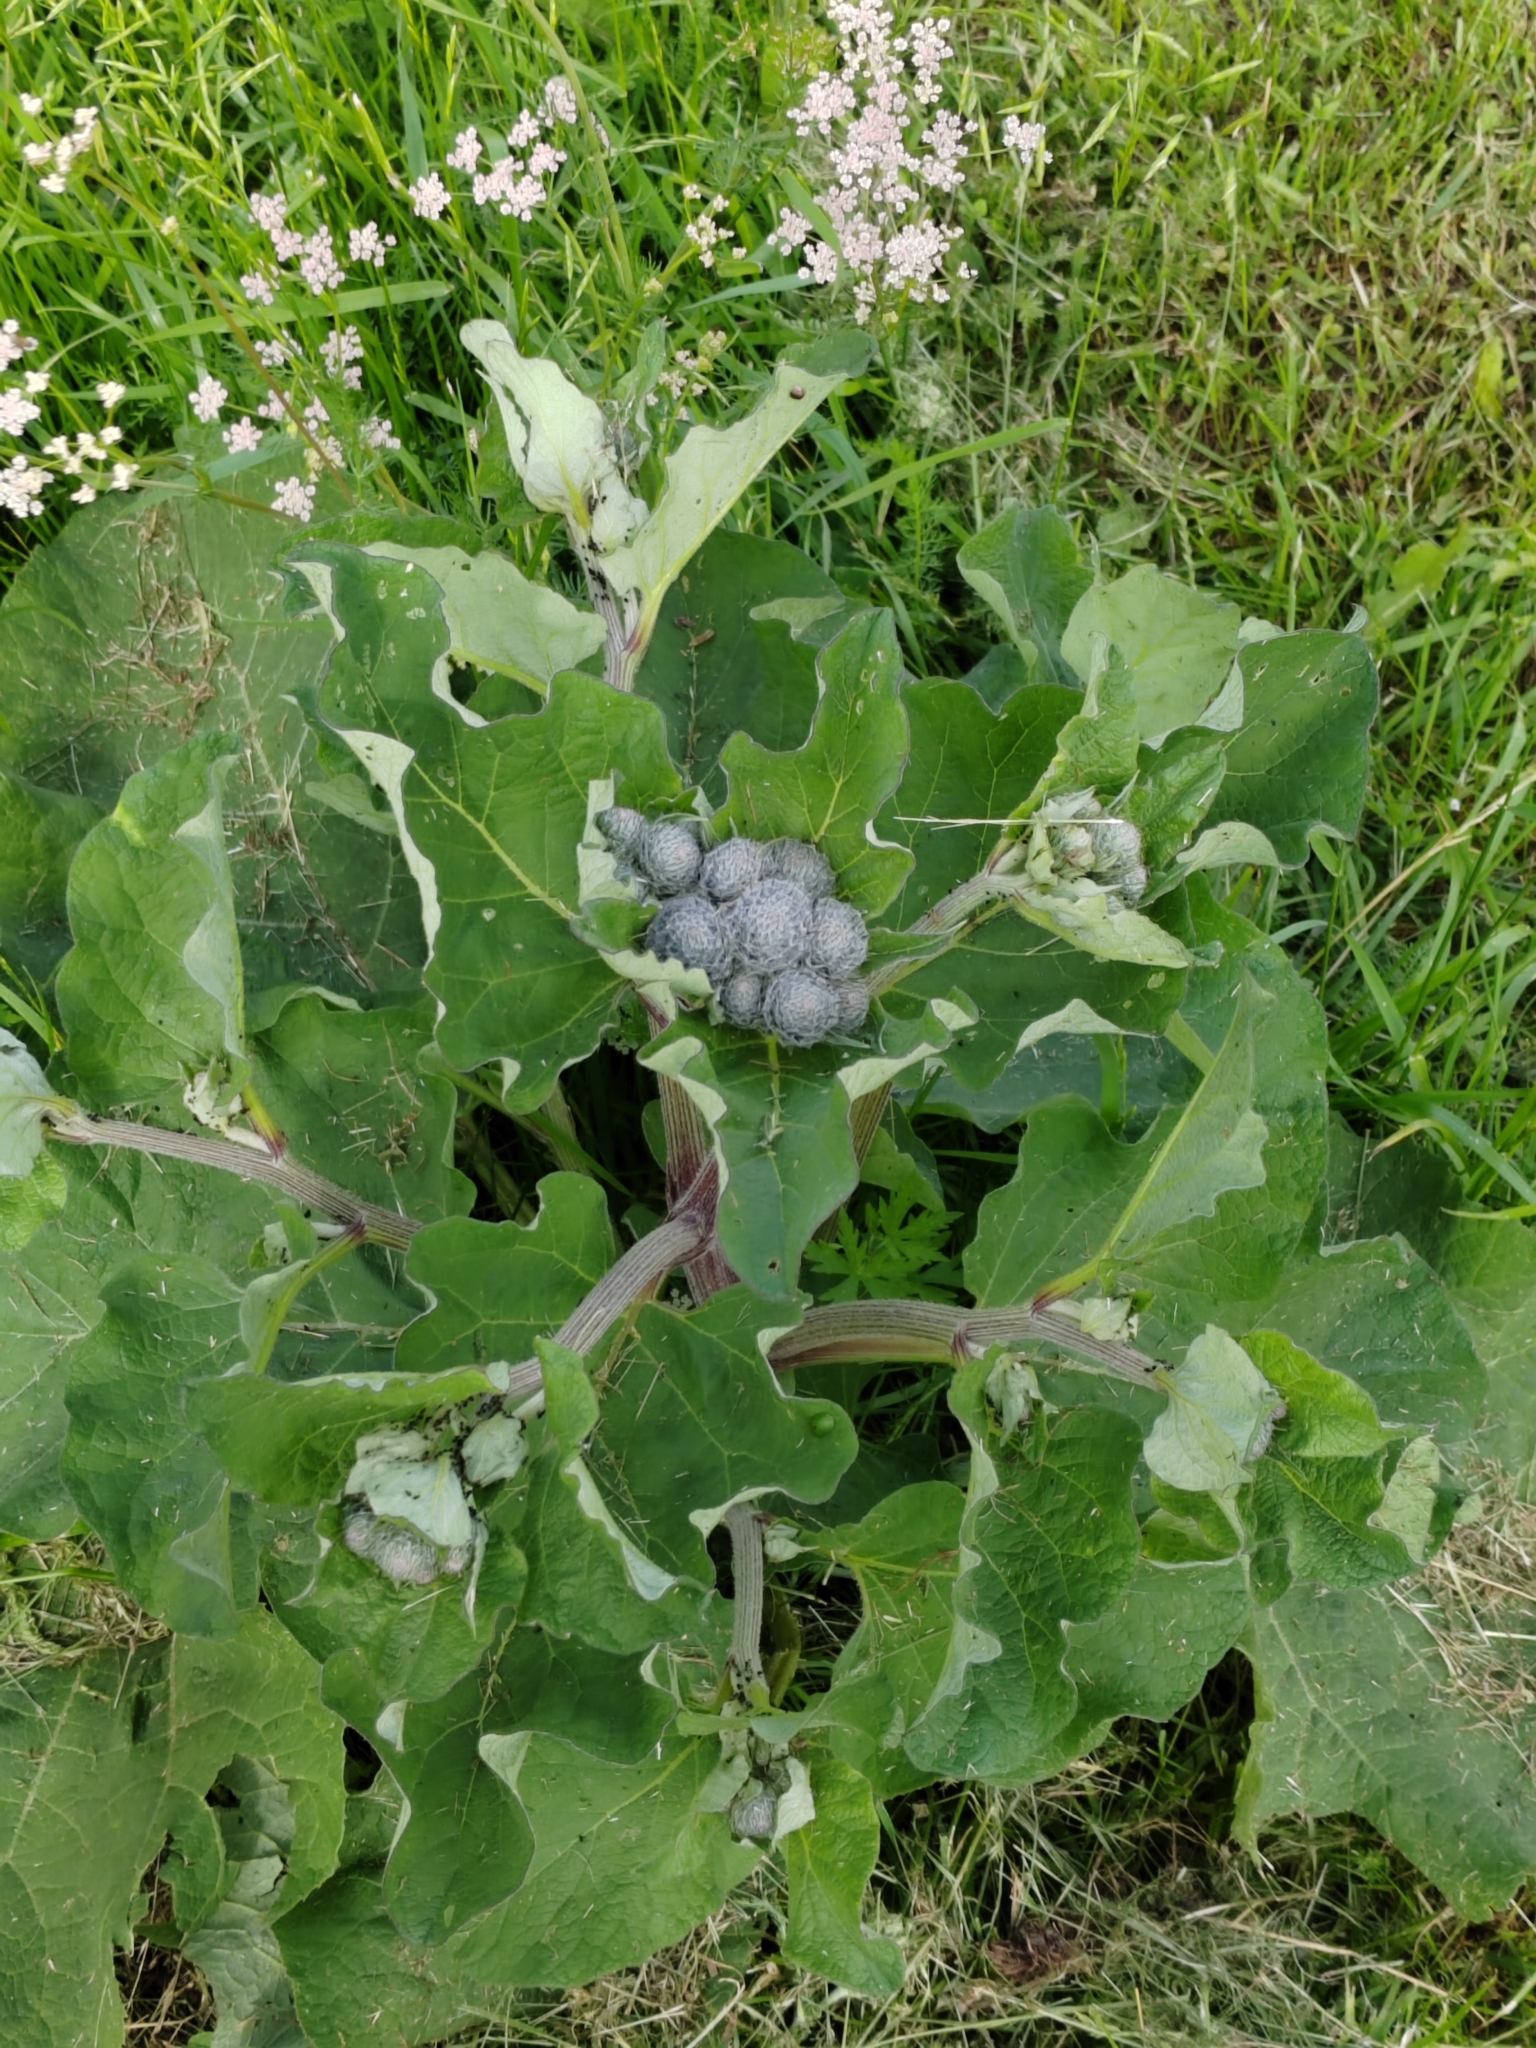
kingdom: Plantae
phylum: Tracheophyta
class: Magnoliopsida
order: Asterales
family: Asteraceae
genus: Arctium
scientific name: Arctium tomentosum
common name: Woolly burdock
